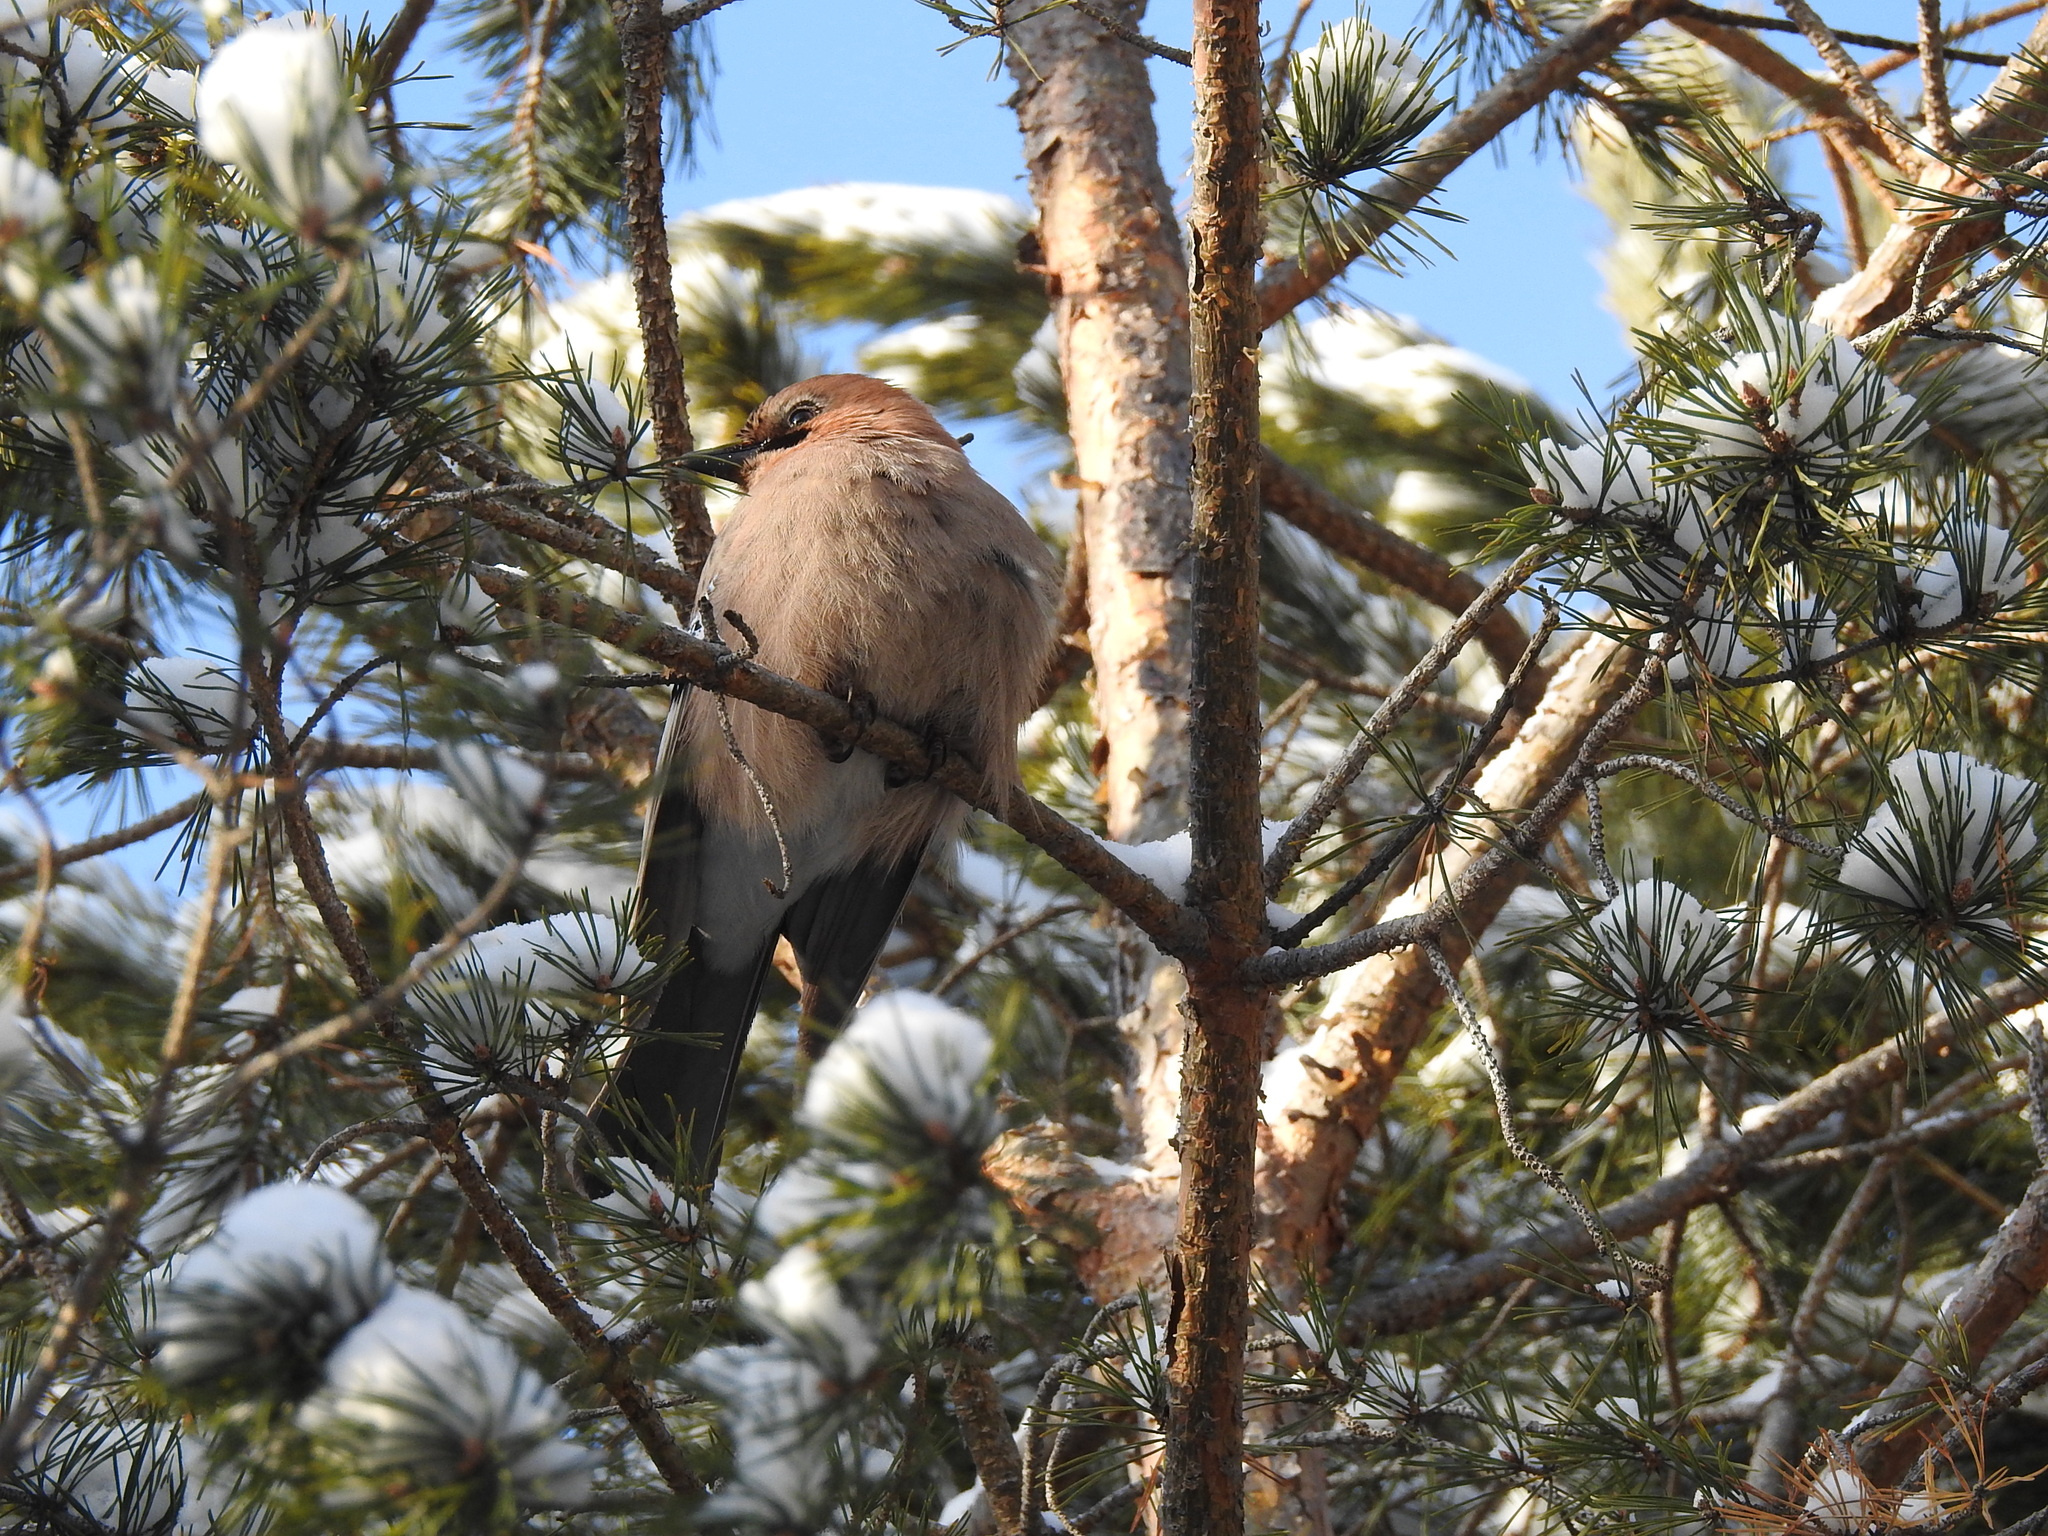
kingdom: Animalia
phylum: Chordata
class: Aves
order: Passeriformes
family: Corvidae
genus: Garrulus
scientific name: Garrulus glandarius
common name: Eurasian jay
